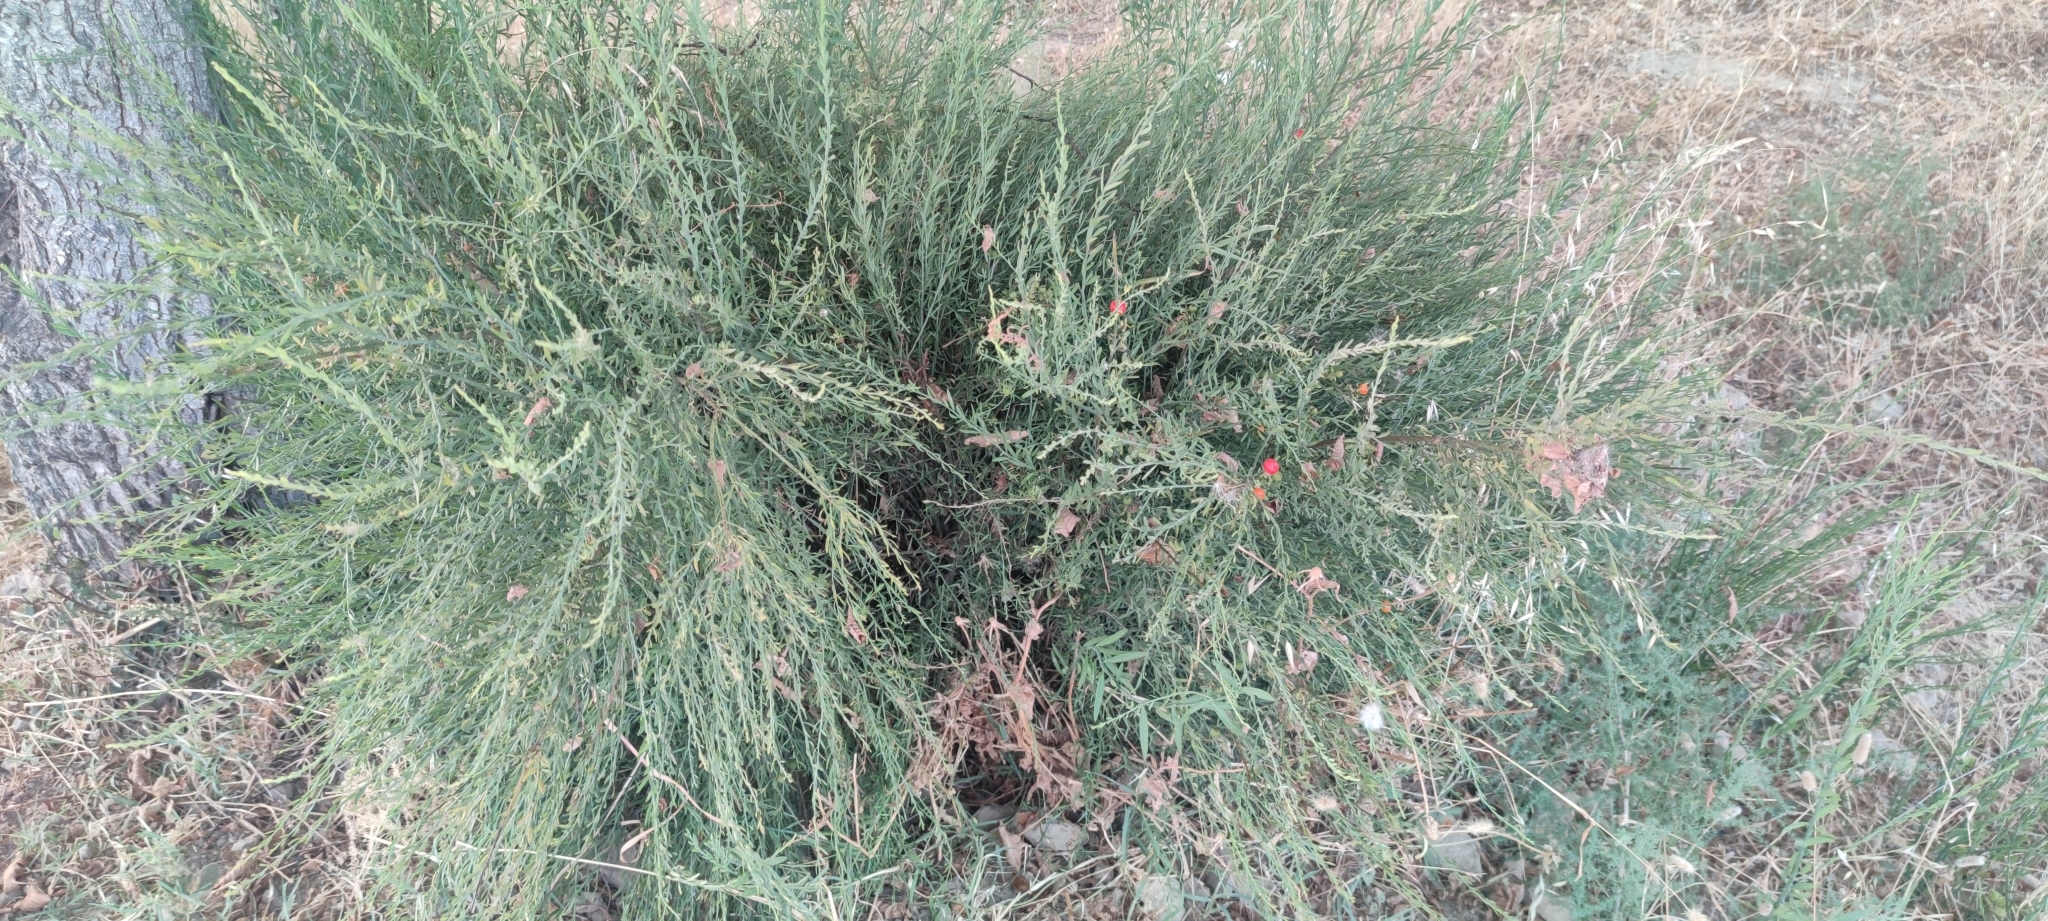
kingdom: Plantae
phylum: Tracheophyta
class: Magnoliopsida
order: Santalales
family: Santalaceae
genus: Osyris
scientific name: Osyris alba
